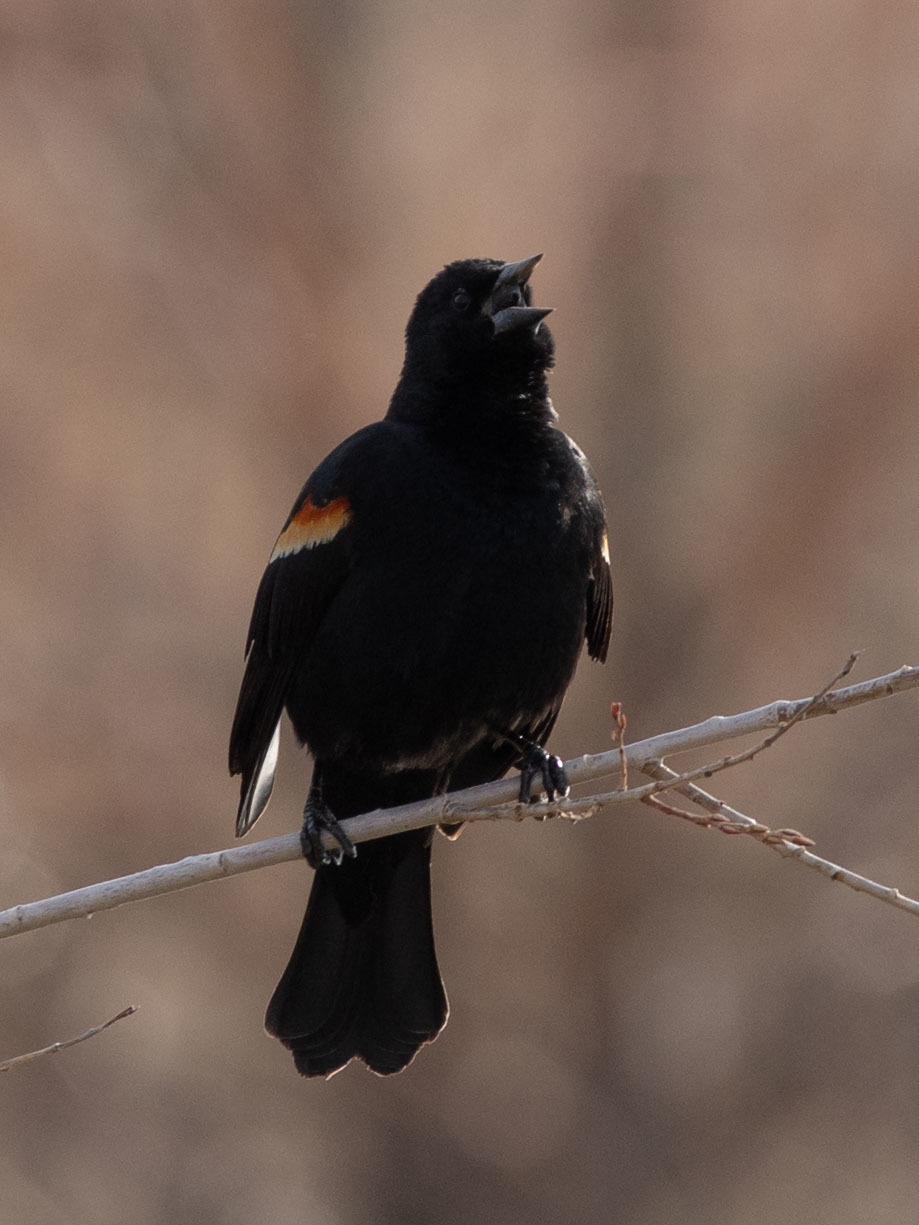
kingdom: Animalia
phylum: Chordata
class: Aves
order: Passeriformes
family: Icteridae
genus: Agelaius
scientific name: Agelaius phoeniceus
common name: Red-winged blackbird
